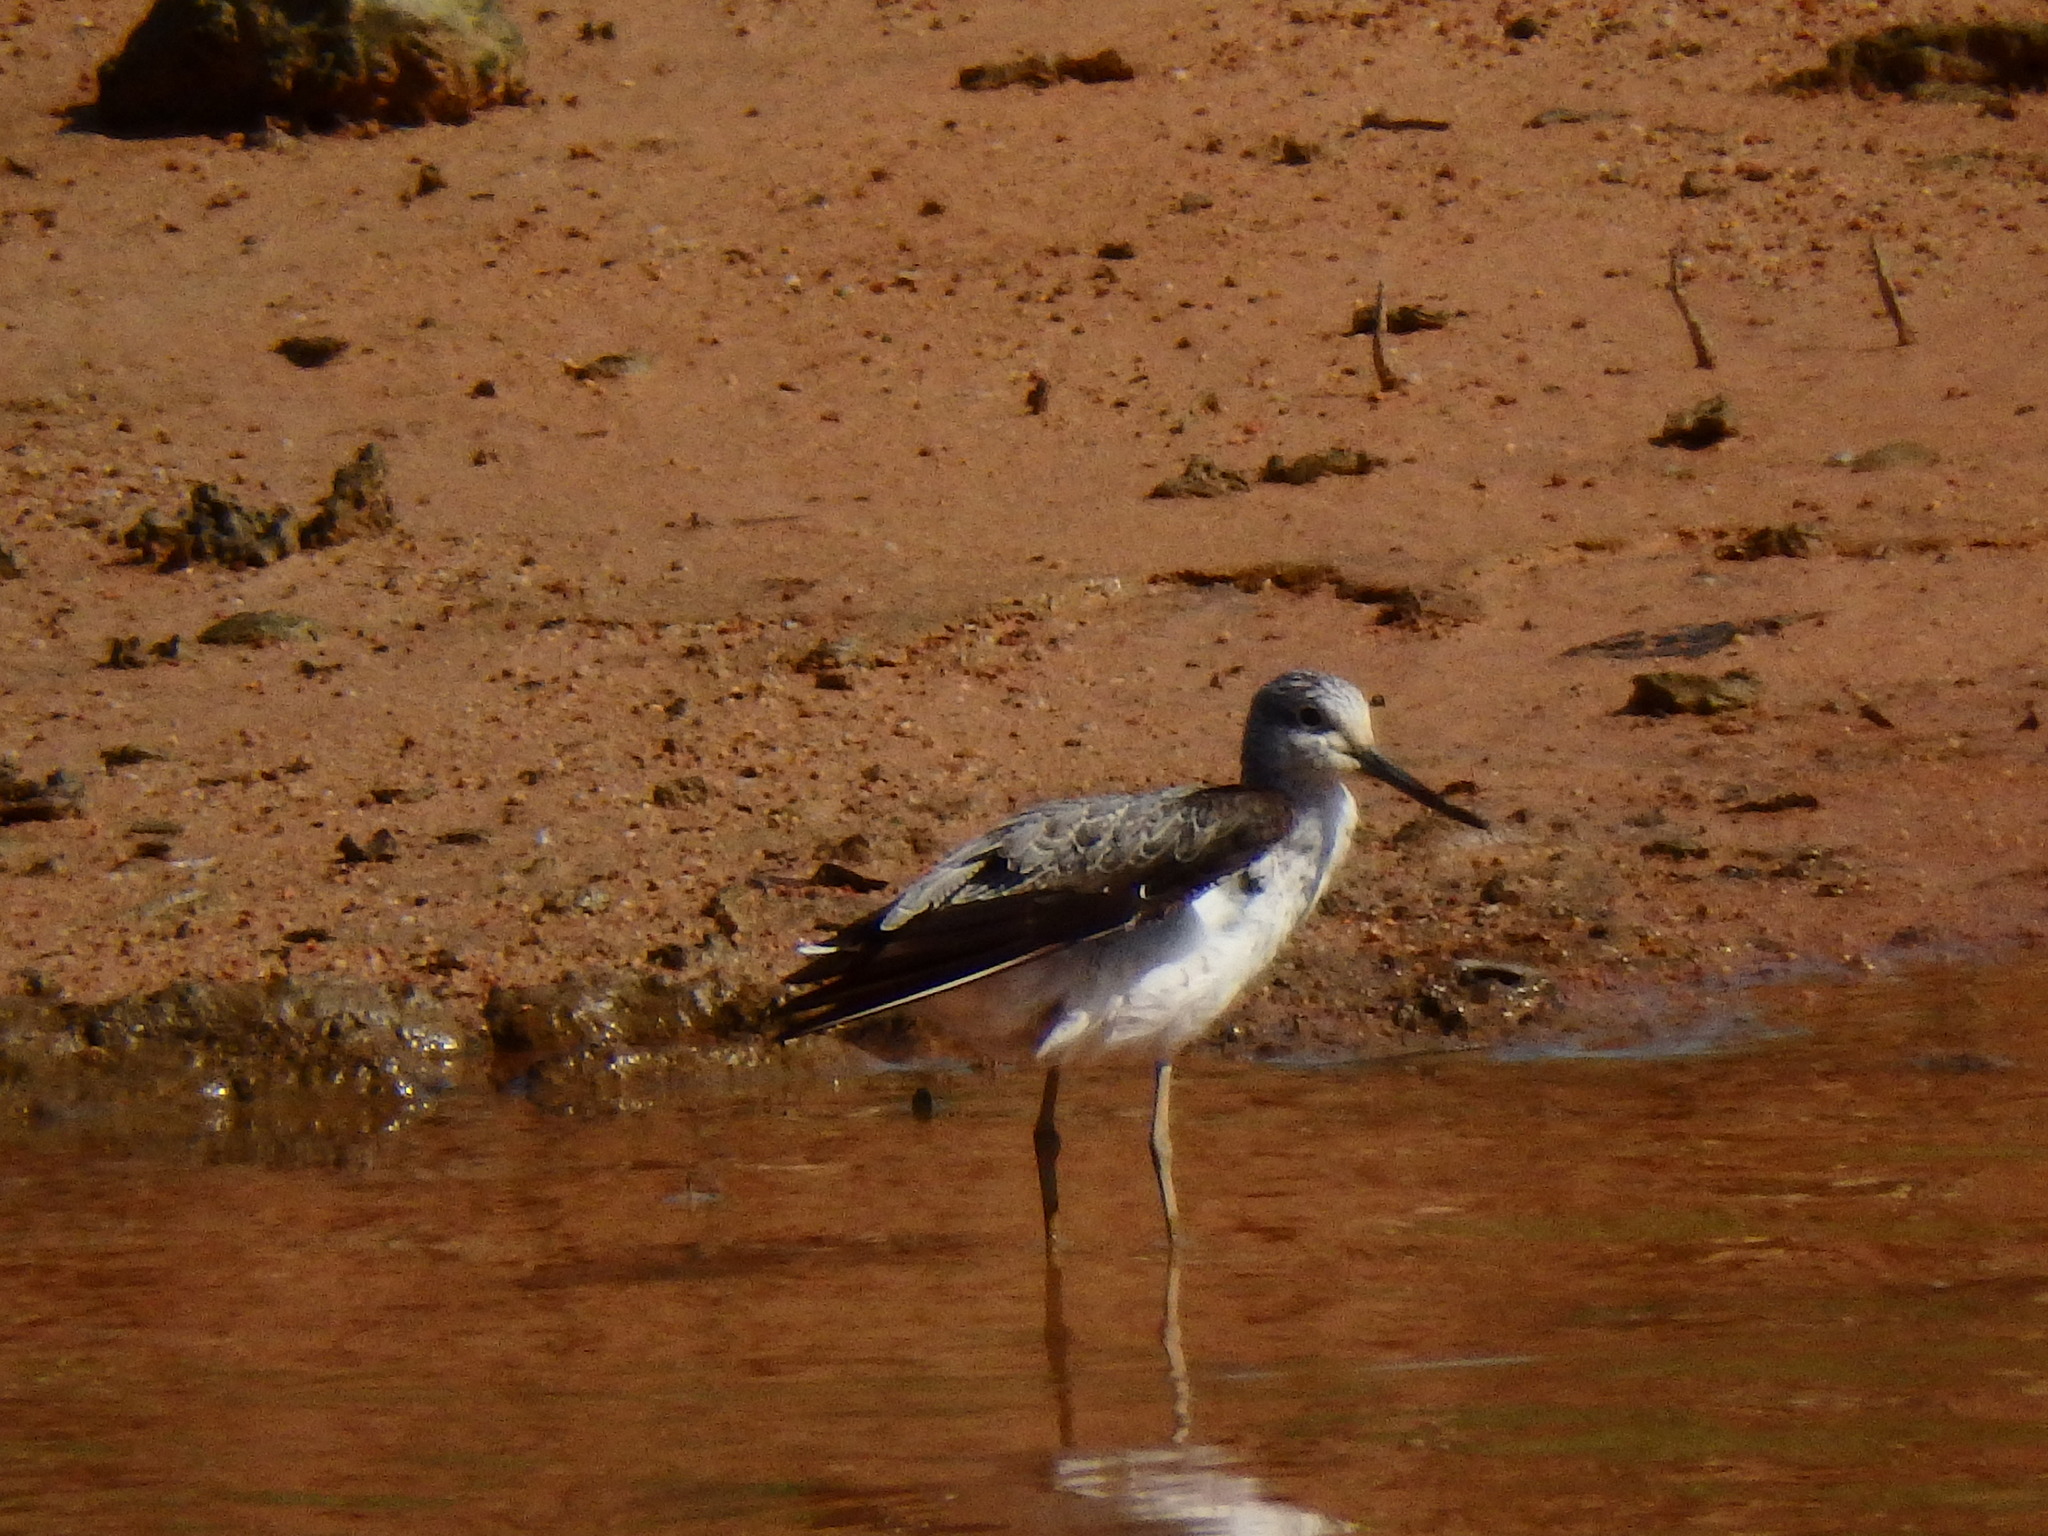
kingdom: Animalia
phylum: Chordata
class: Aves
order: Charadriiformes
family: Scolopacidae
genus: Tringa
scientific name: Tringa nebularia
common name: Common greenshank
